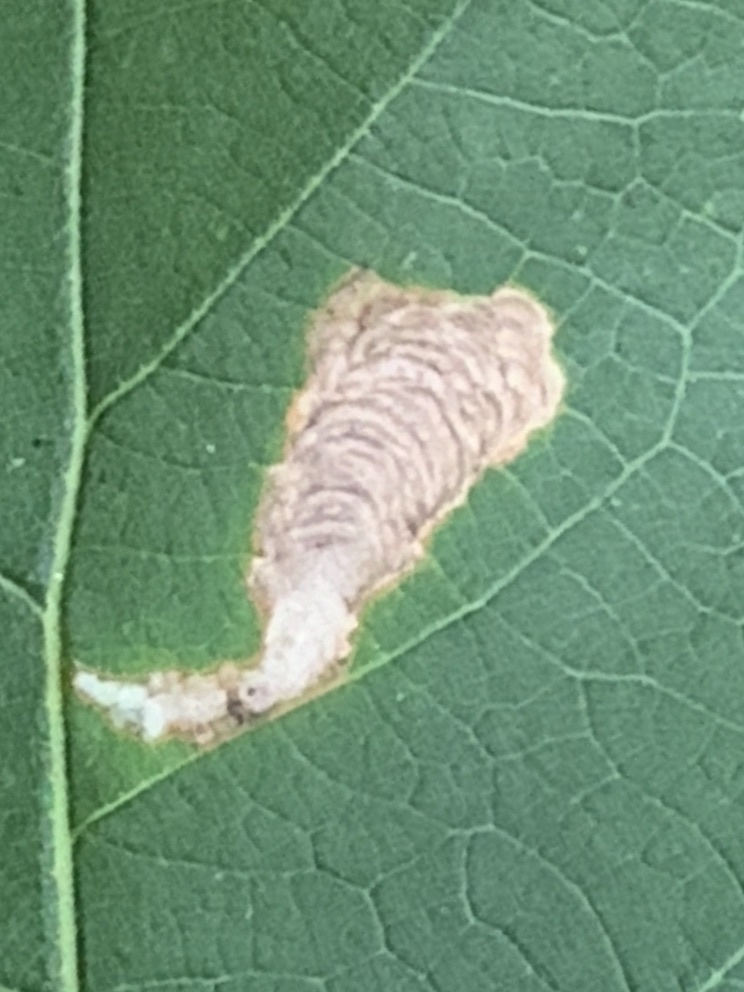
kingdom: Animalia
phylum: Arthropoda
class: Insecta
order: Lepidoptera
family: Tischeriidae
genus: Coptotriche
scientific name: Coptotriche castaneaeella
